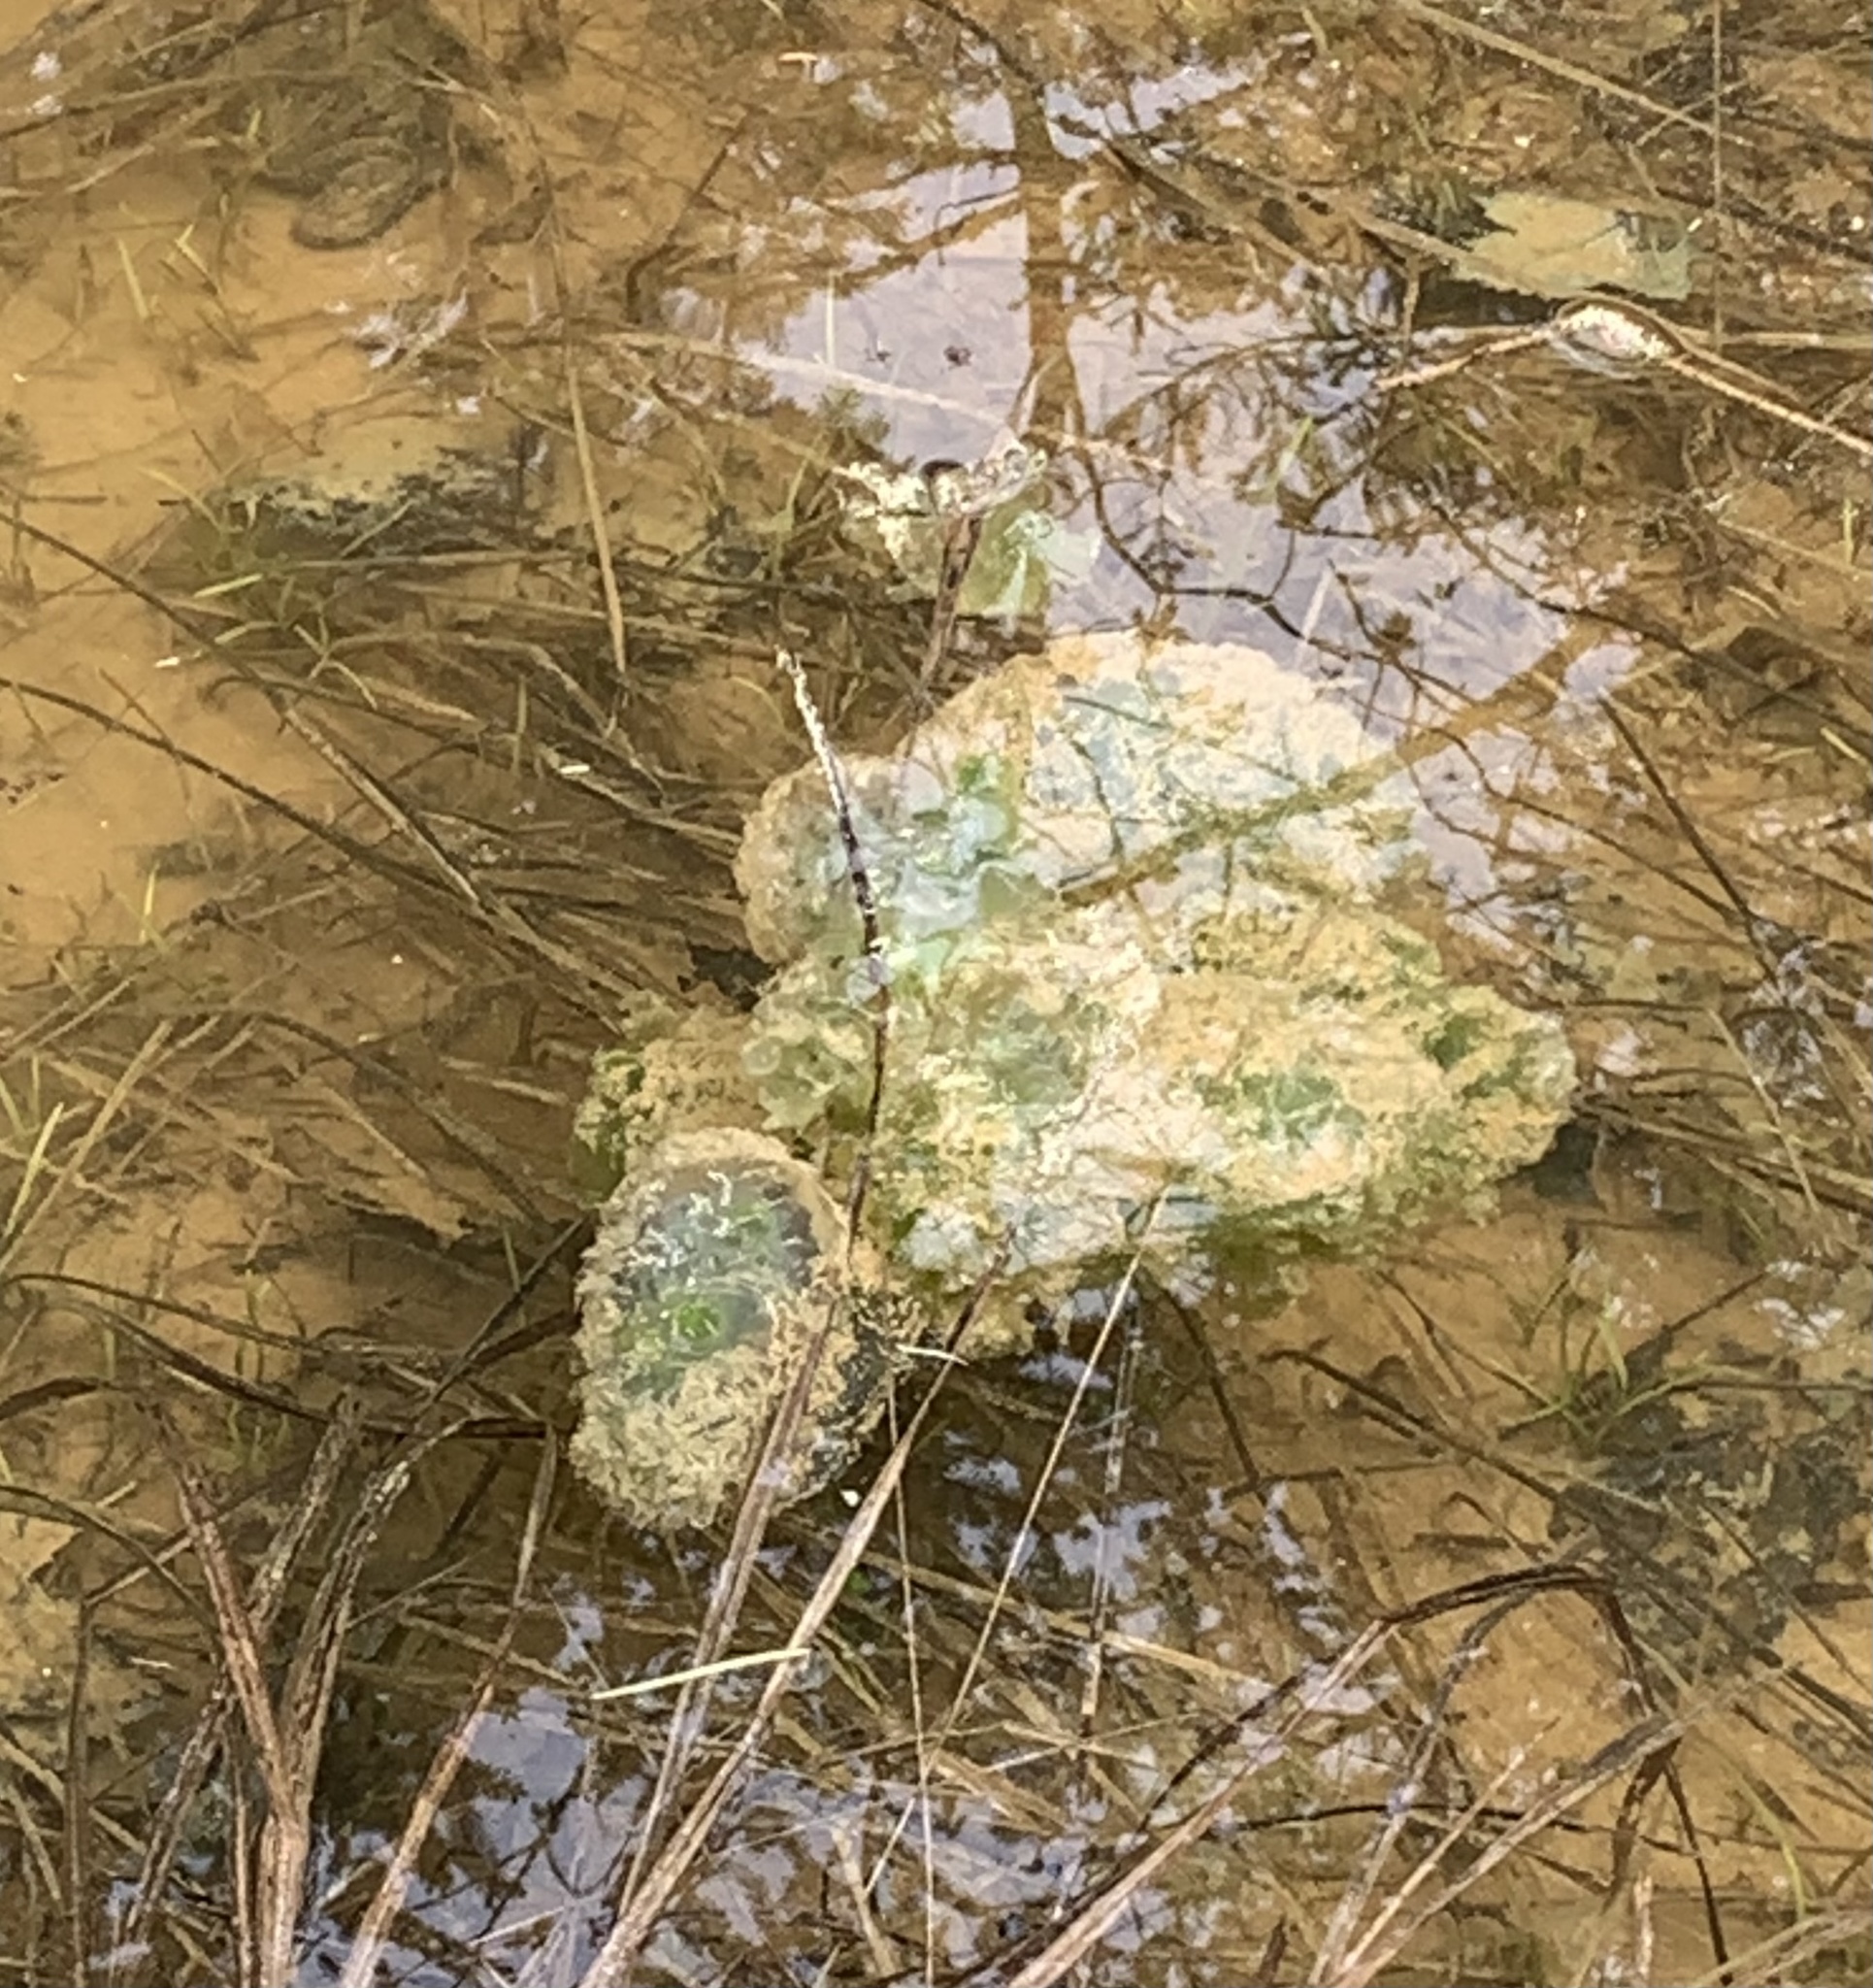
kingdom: Animalia
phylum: Chordata
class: Amphibia
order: Caudata
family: Ambystomatidae
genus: Ambystoma
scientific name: Ambystoma maculatum
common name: Spotted salamander
